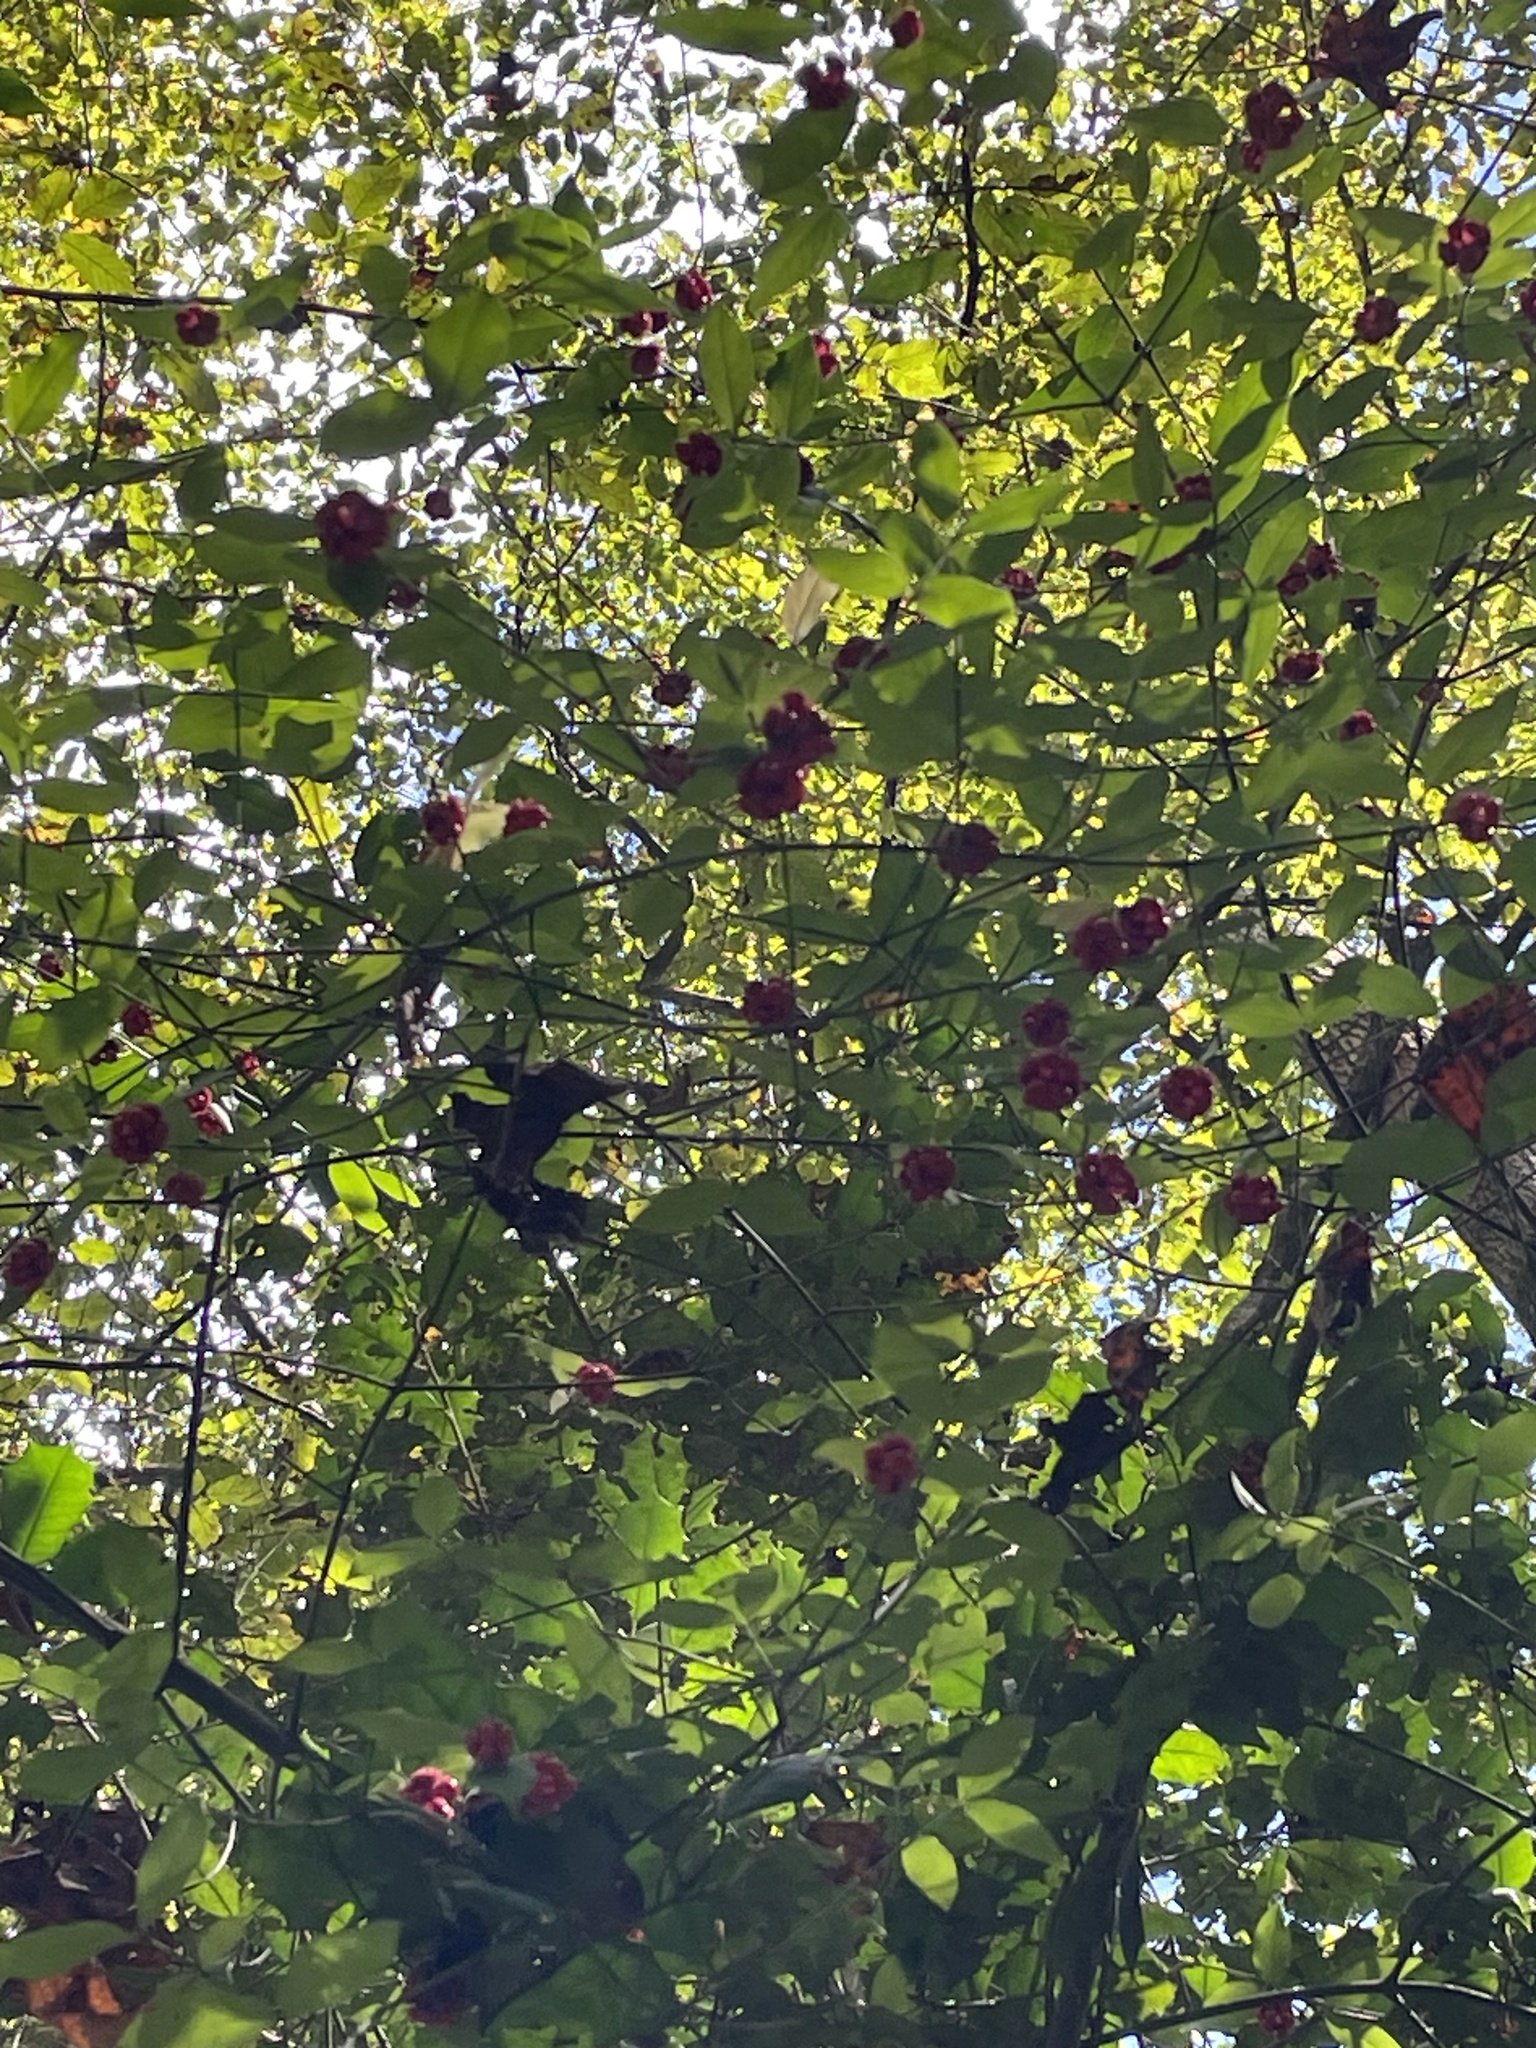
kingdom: Plantae
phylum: Tracheophyta
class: Magnoliopsida
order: Celastrales
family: Celastraceae
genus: Euonymus
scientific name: Euonymus americanus
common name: Bursting-heart
